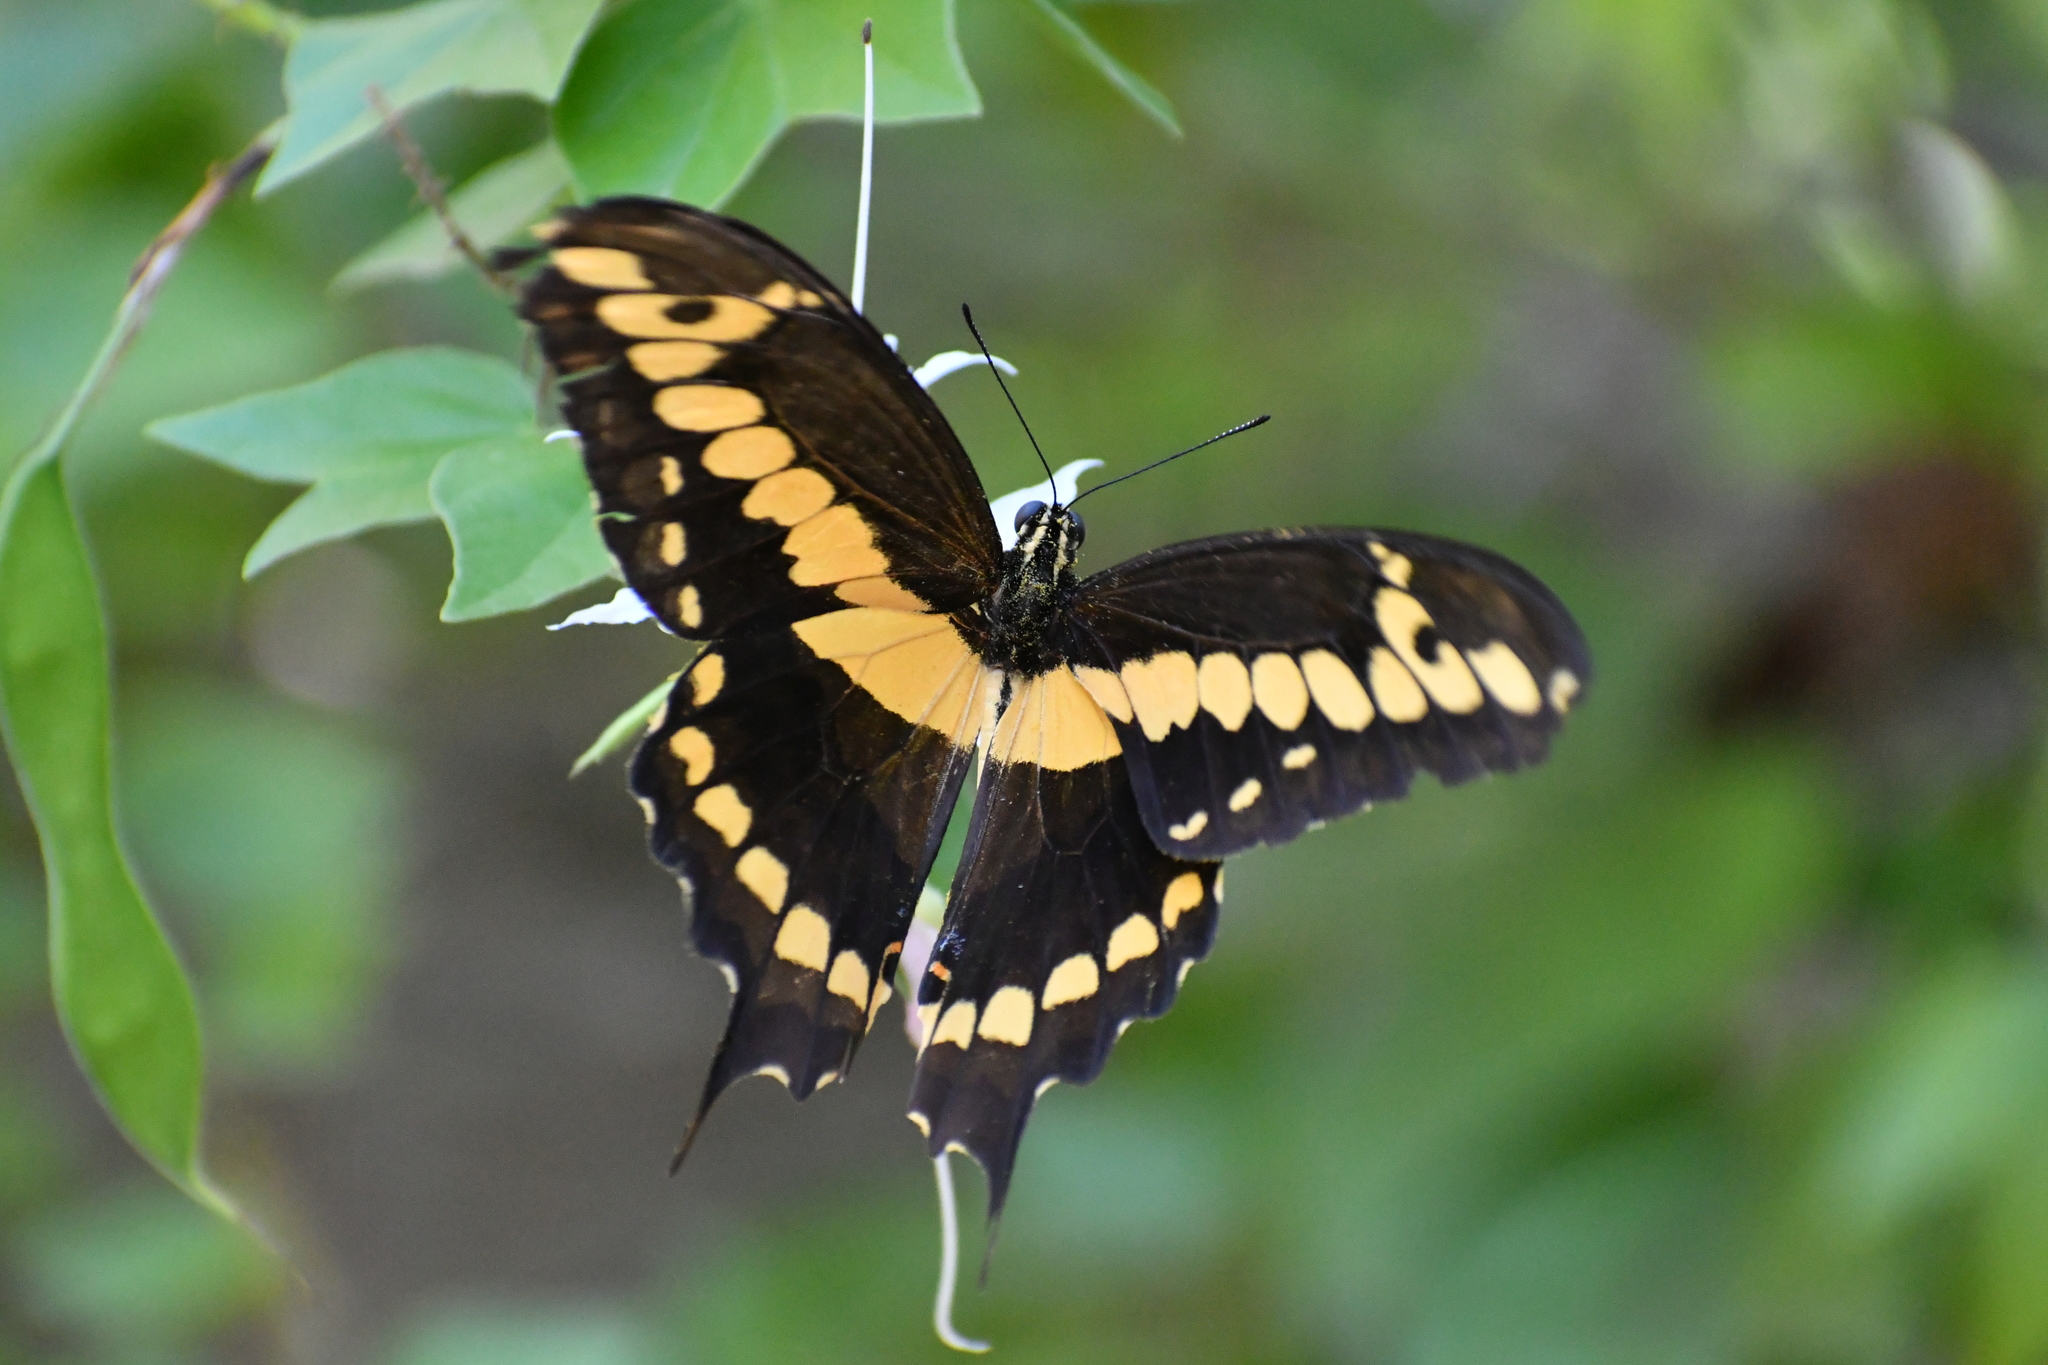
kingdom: Animalia
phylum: Arthropoda
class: Insecta
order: Lepidoptera
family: Papilionidae
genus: Papilio
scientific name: Papilio rumiko
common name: Western giant swallowtail
